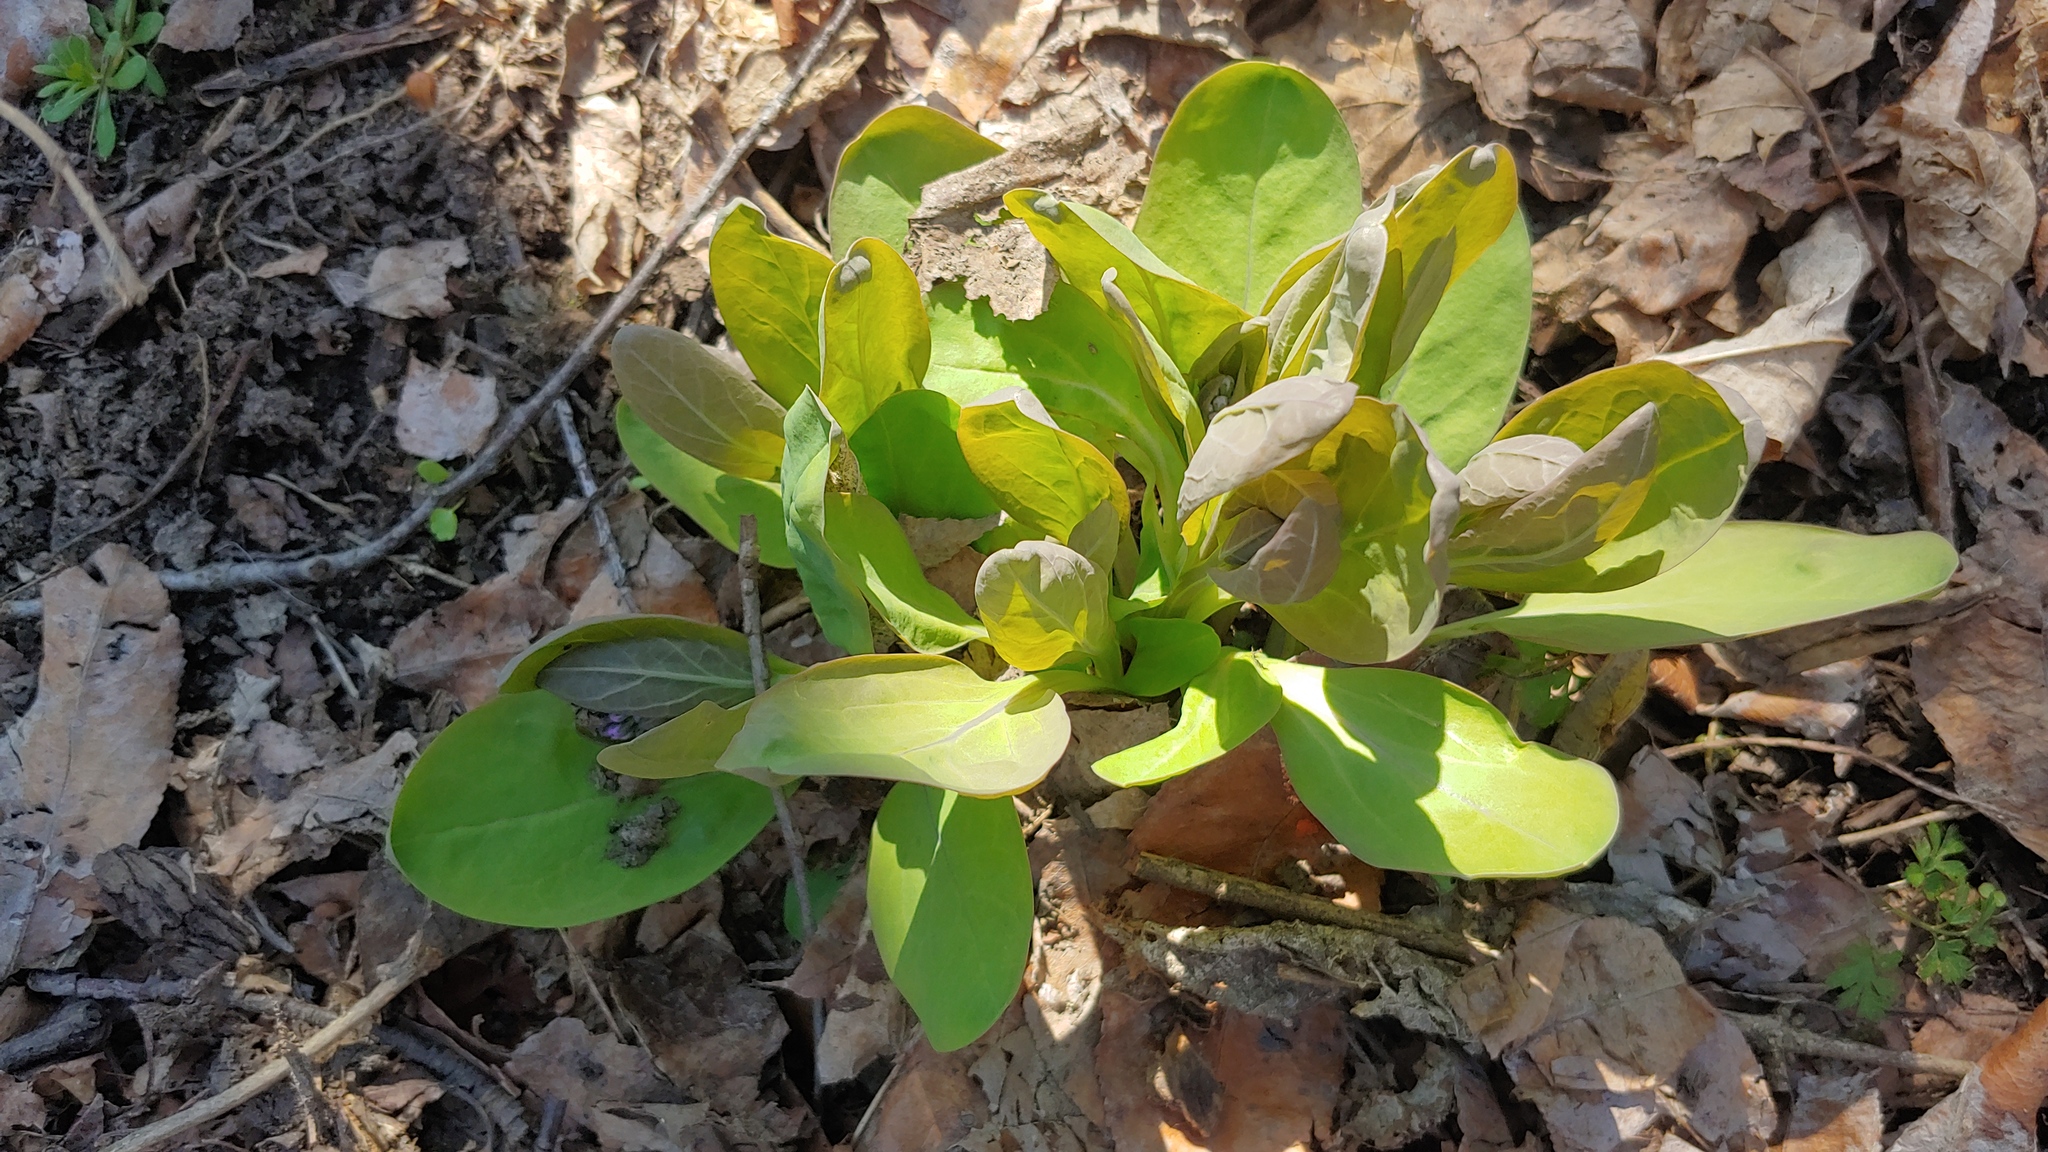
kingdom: Plantae
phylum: Tracheophyta
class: Magnoliopsida
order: Boraginales
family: Boraginaceae
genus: Mertensia
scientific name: Mertensia virginica
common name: Virginia bluebells
